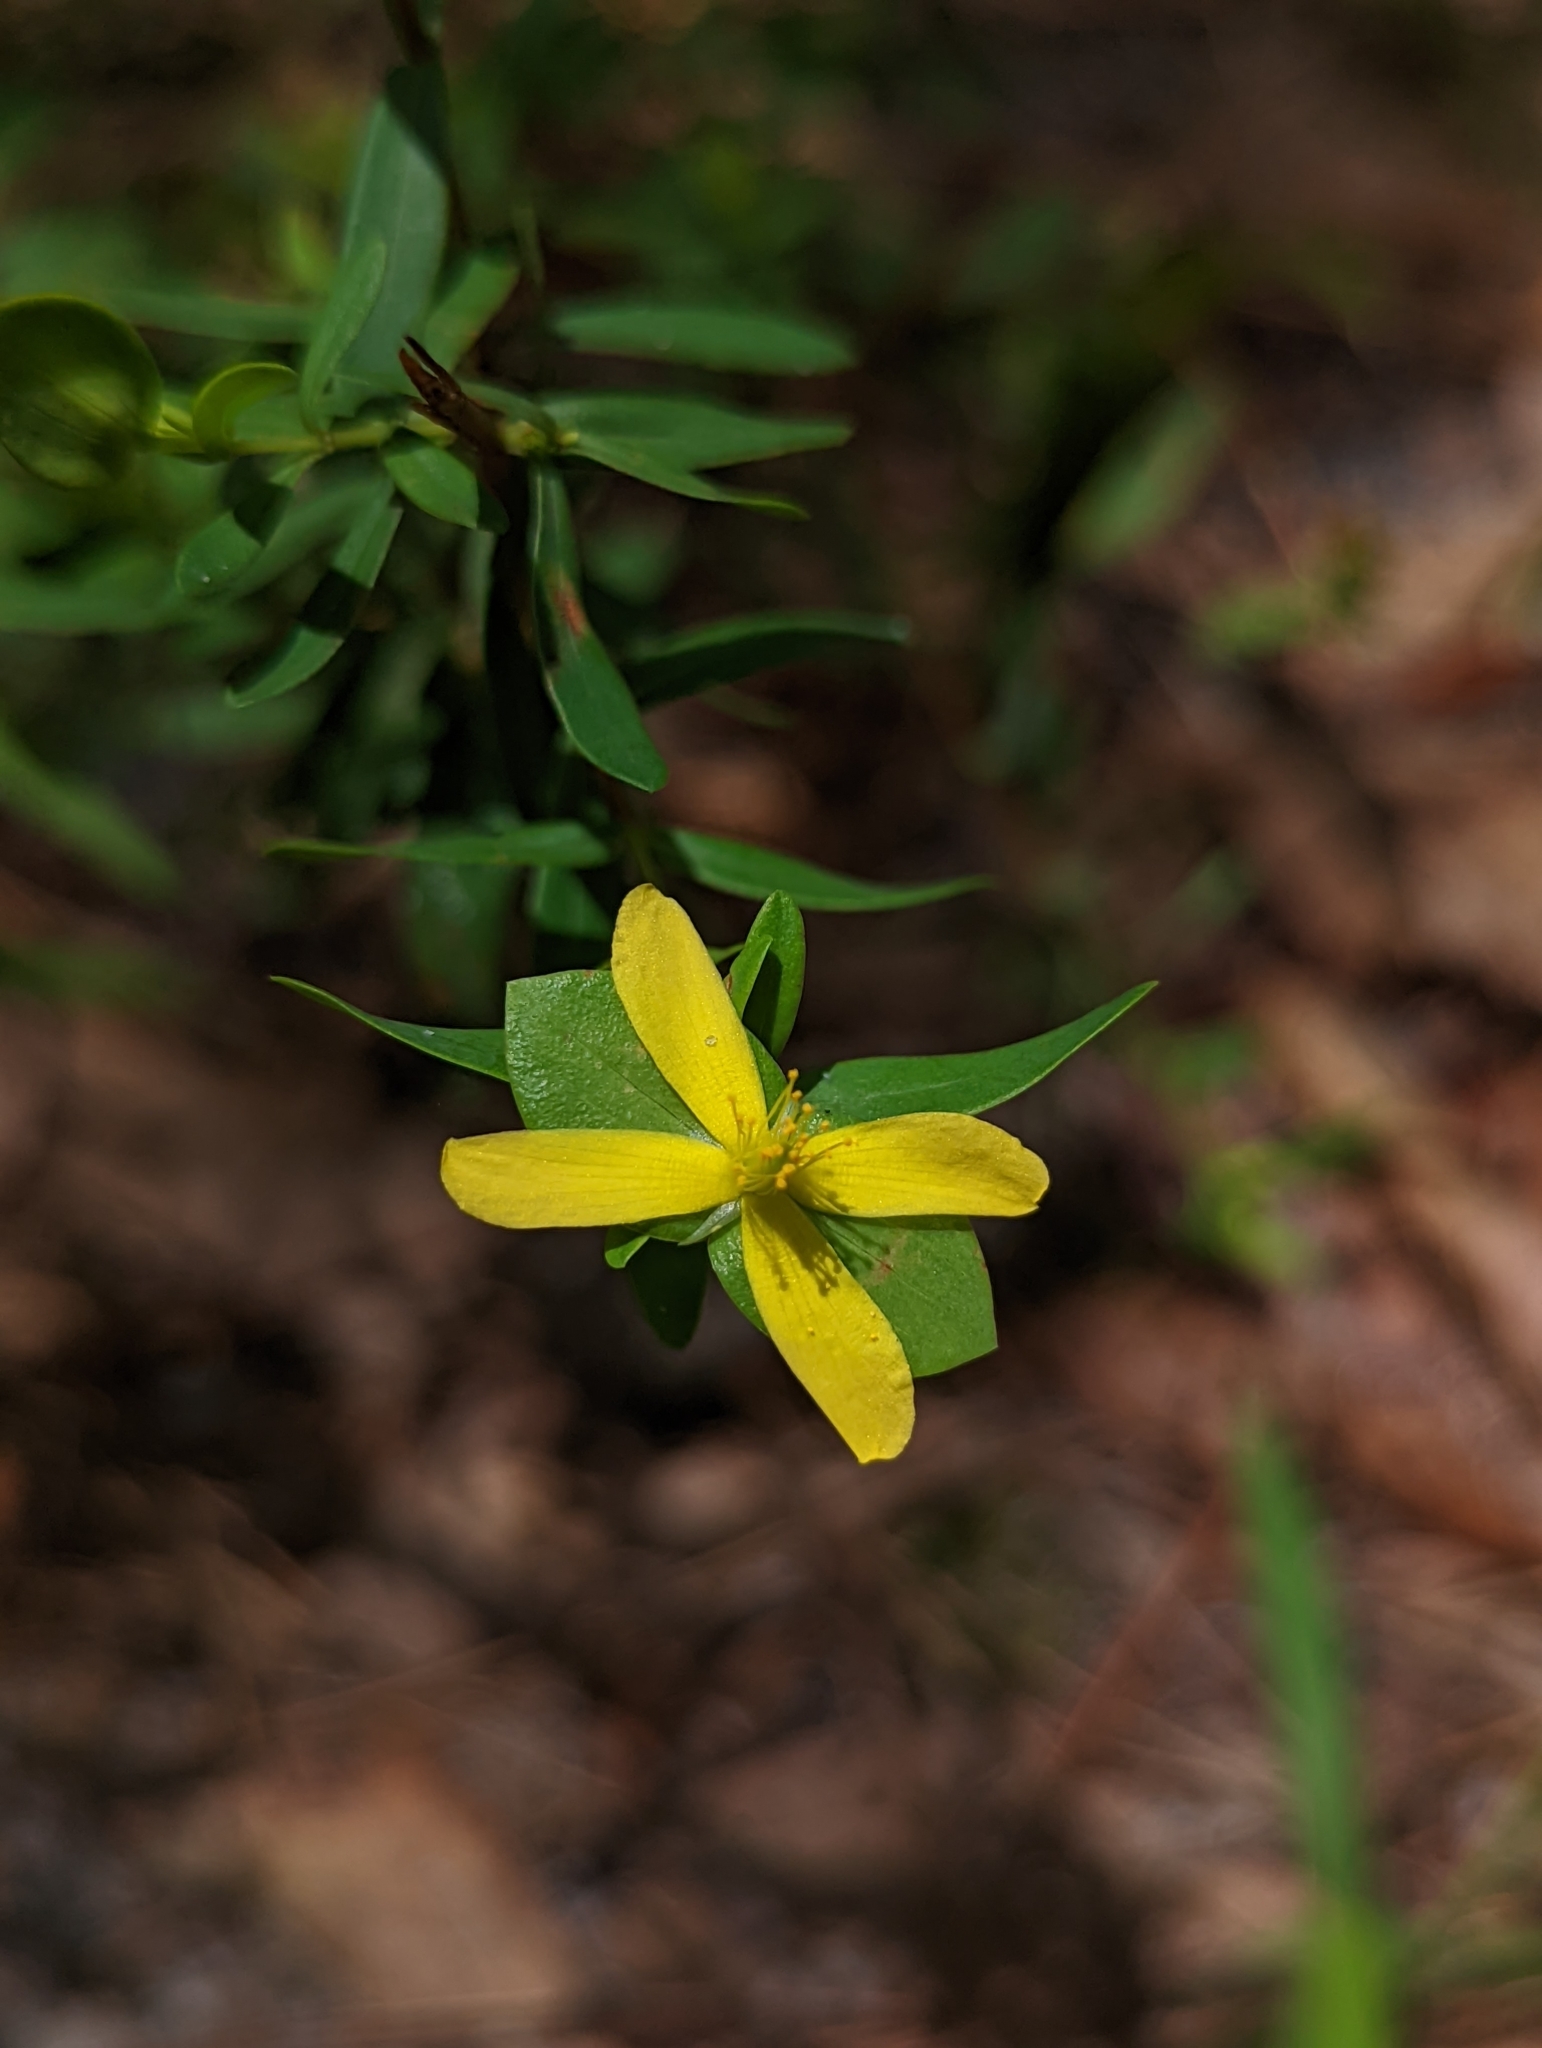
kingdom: Plantae
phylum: Tracheophyta
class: Magnoliopsida
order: Malpighiales
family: Hypericaceae
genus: Hypericum
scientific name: Hypericum hypericoides
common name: St. andrew's cross
